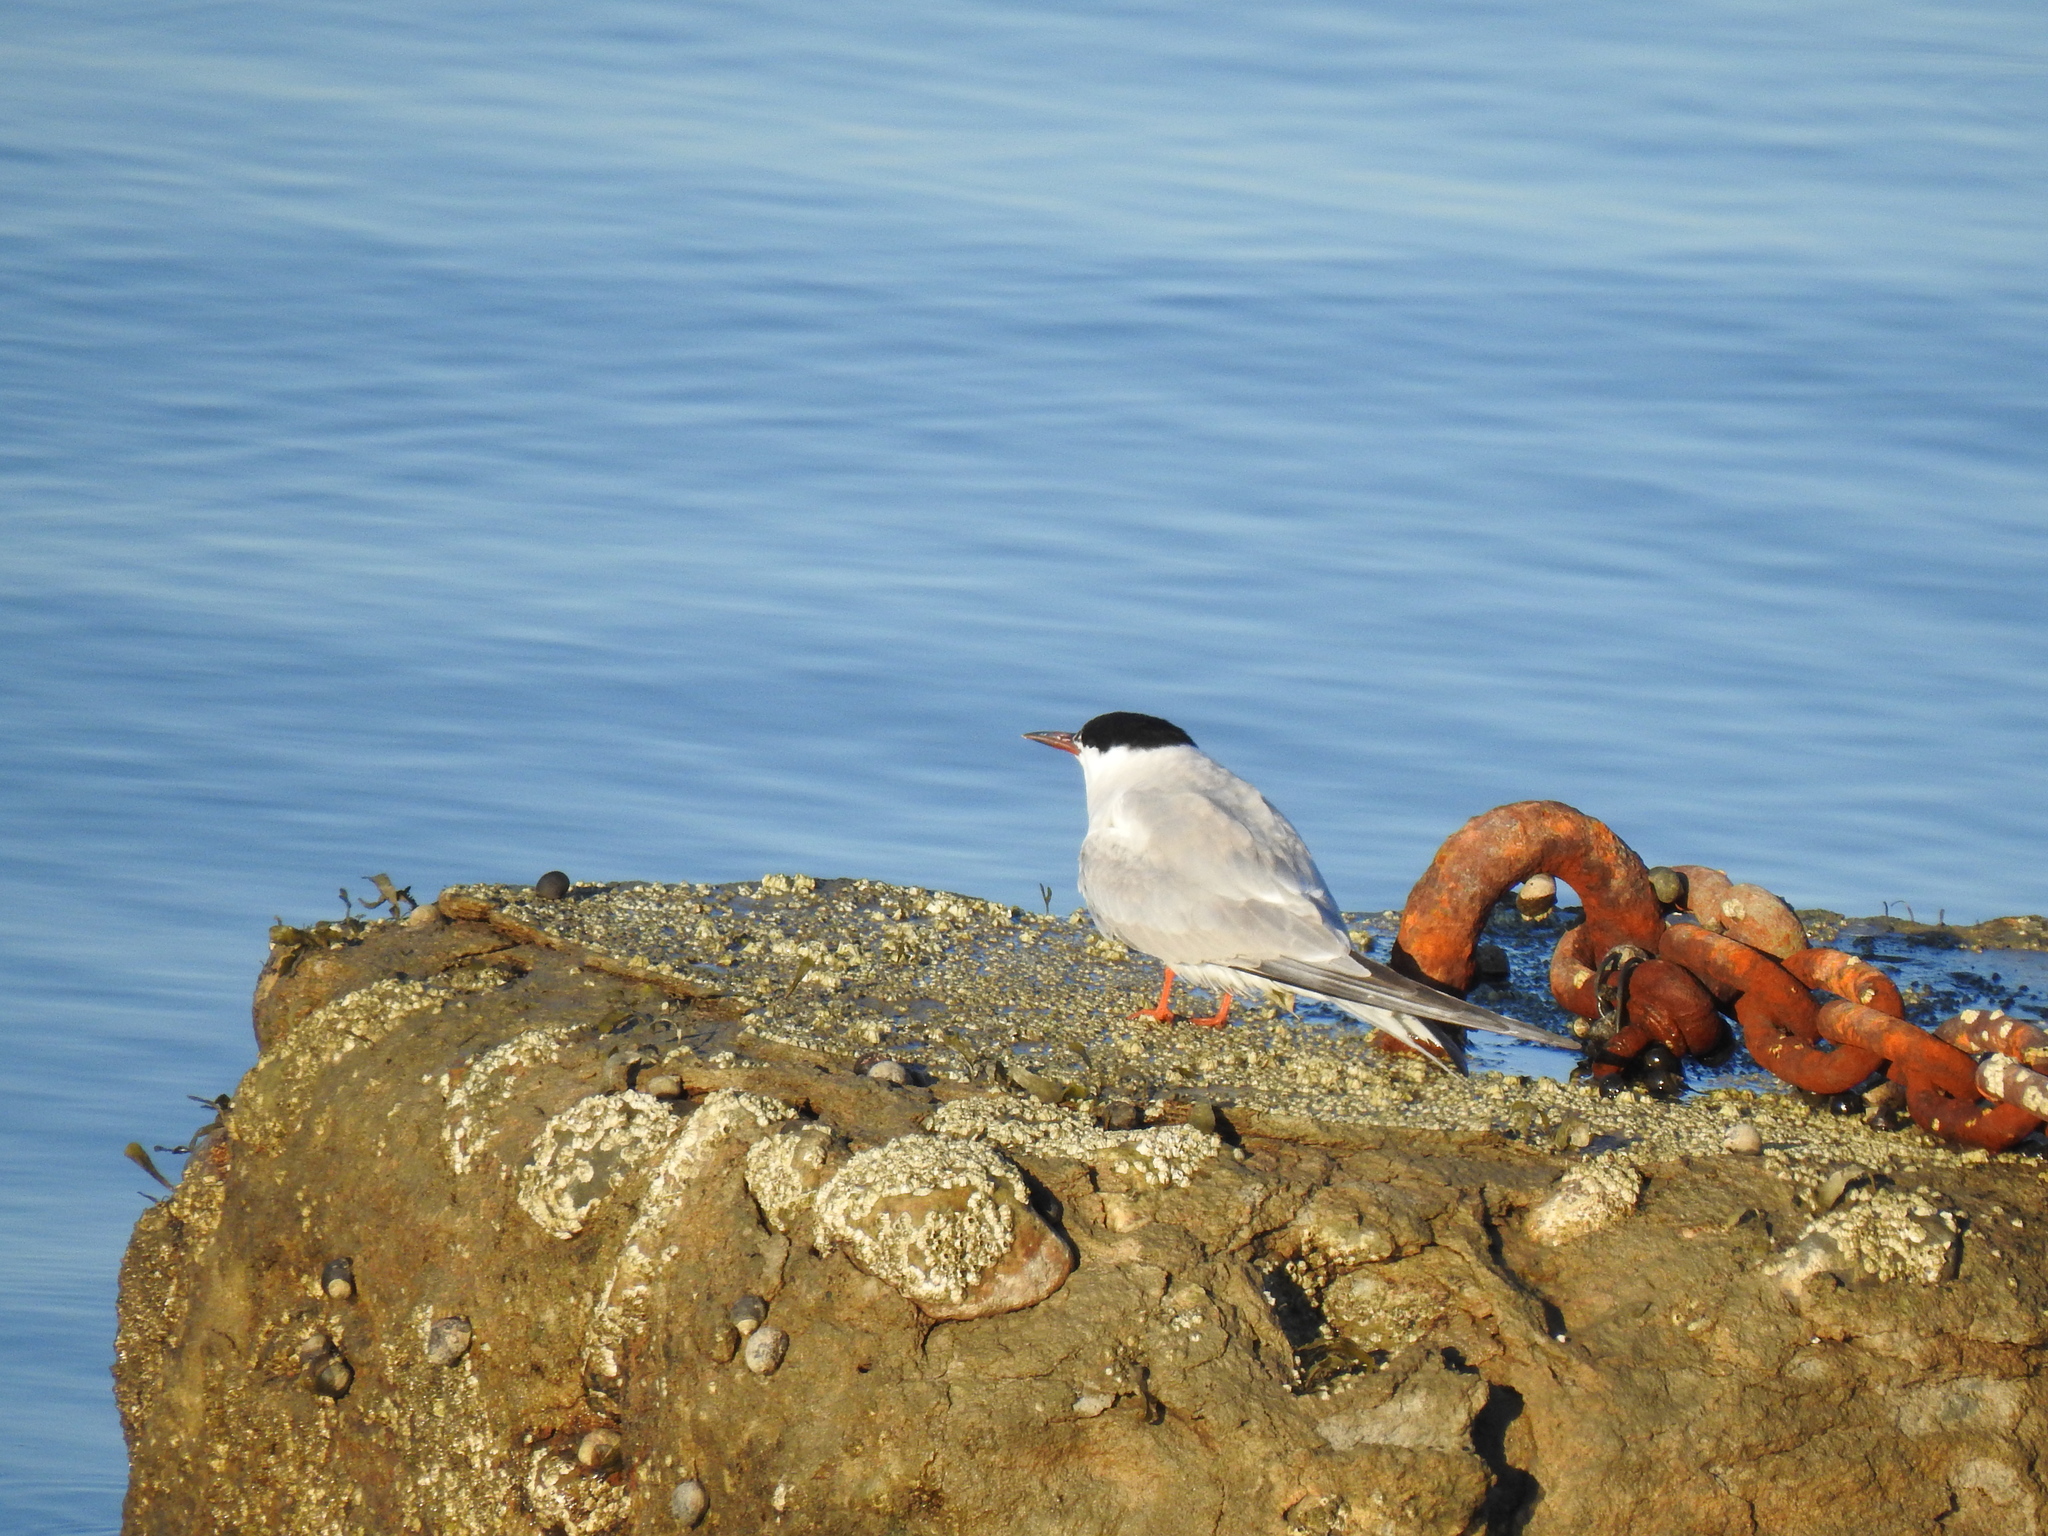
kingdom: Animalia
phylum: Chordata
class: Aves
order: Charadriiformes
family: Laridae
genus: Sterna
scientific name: Sterna hirundo
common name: Common tern
